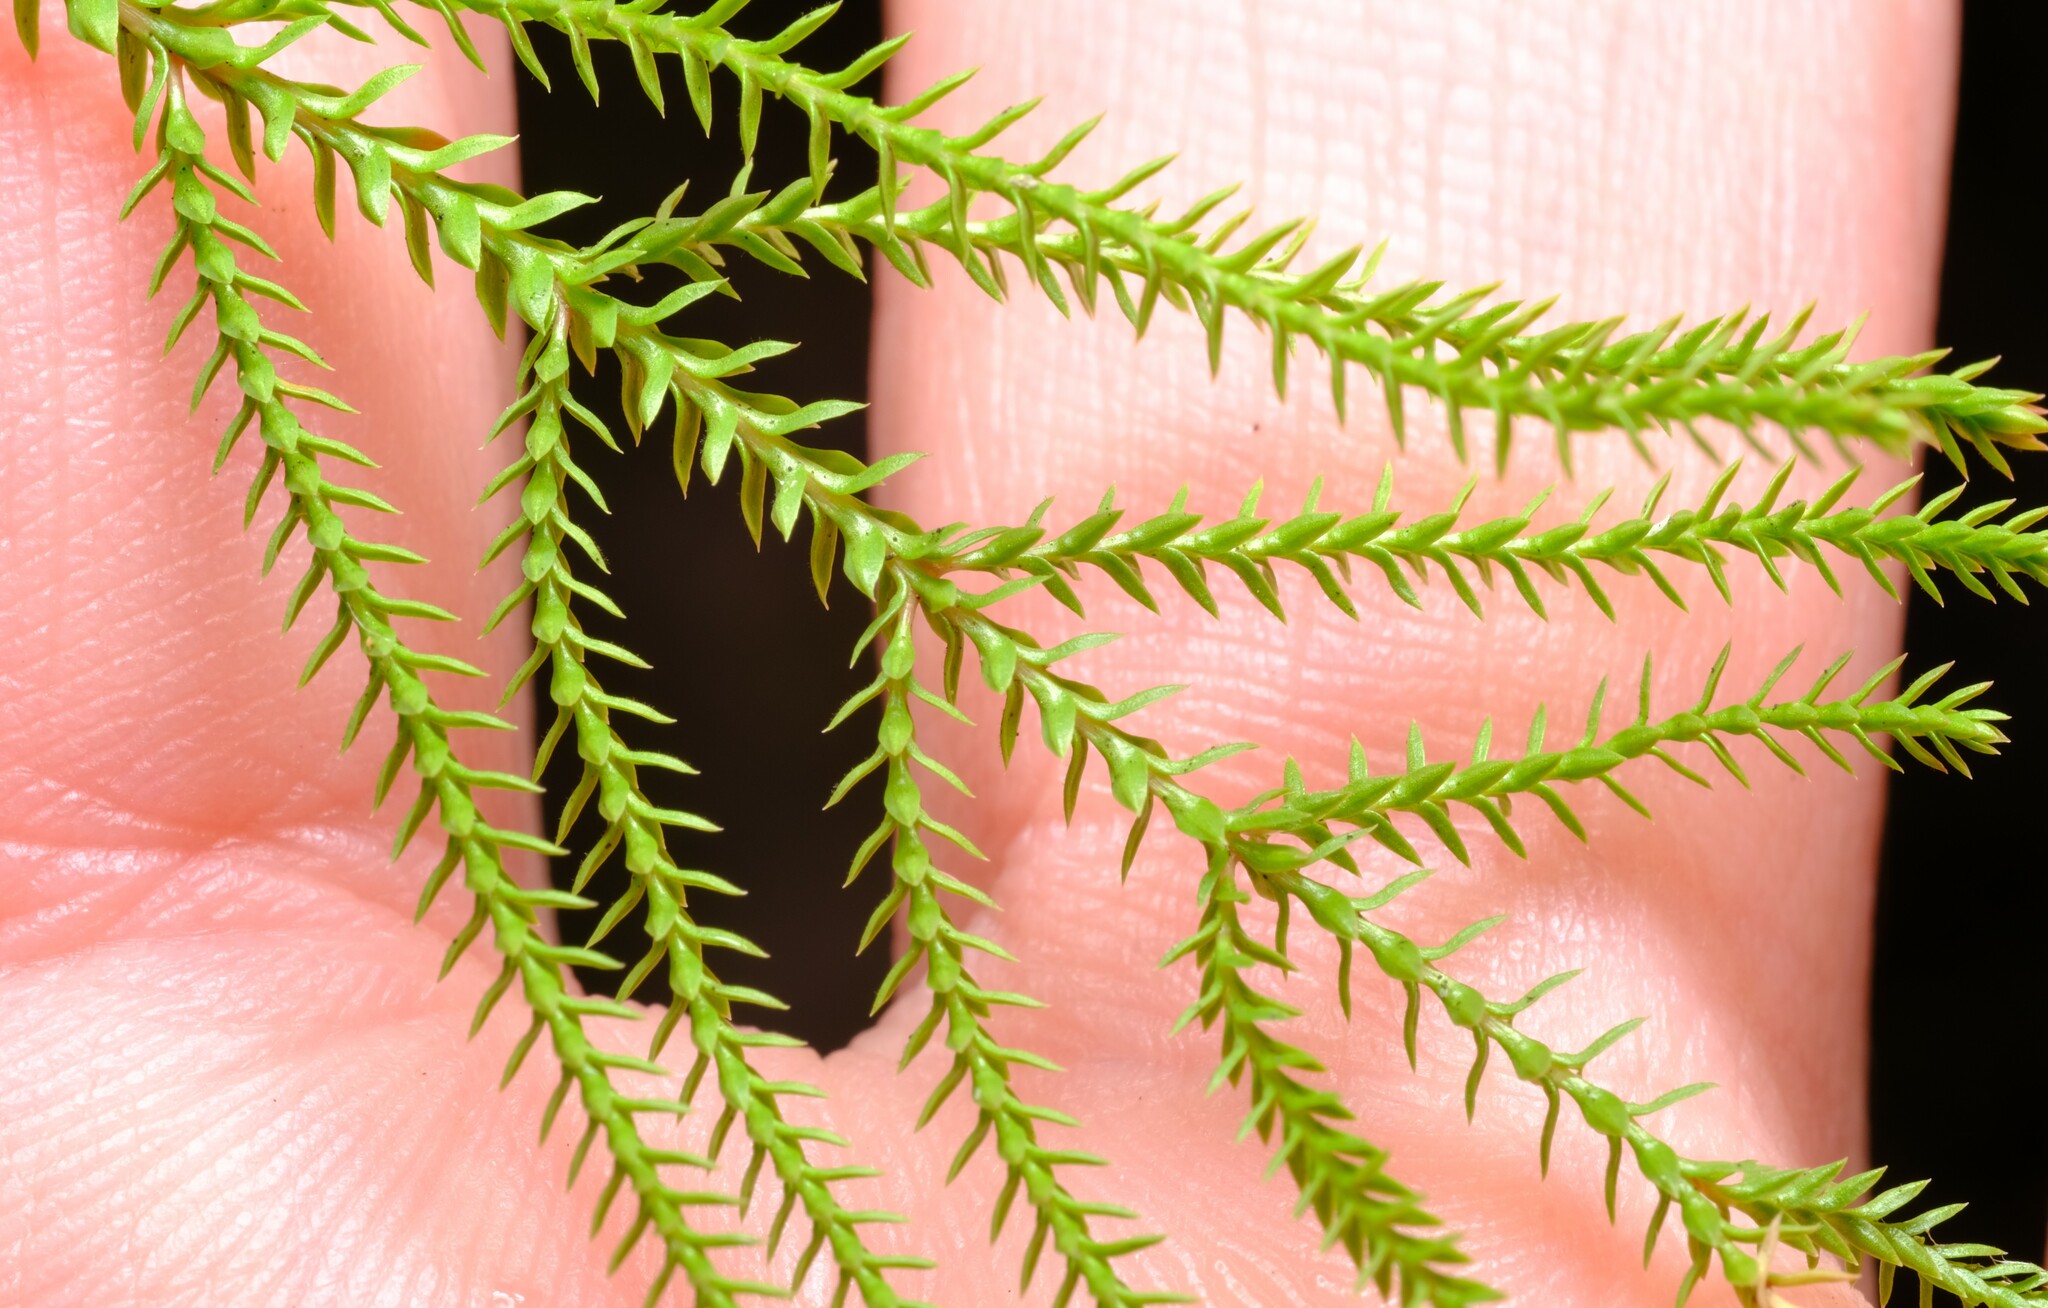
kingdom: Plantae
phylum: Tracheophyta
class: Lycopodiopsida
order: Selaginellales
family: Selaginellaceae
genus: Selaginella
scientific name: Selaginella uliginosa
